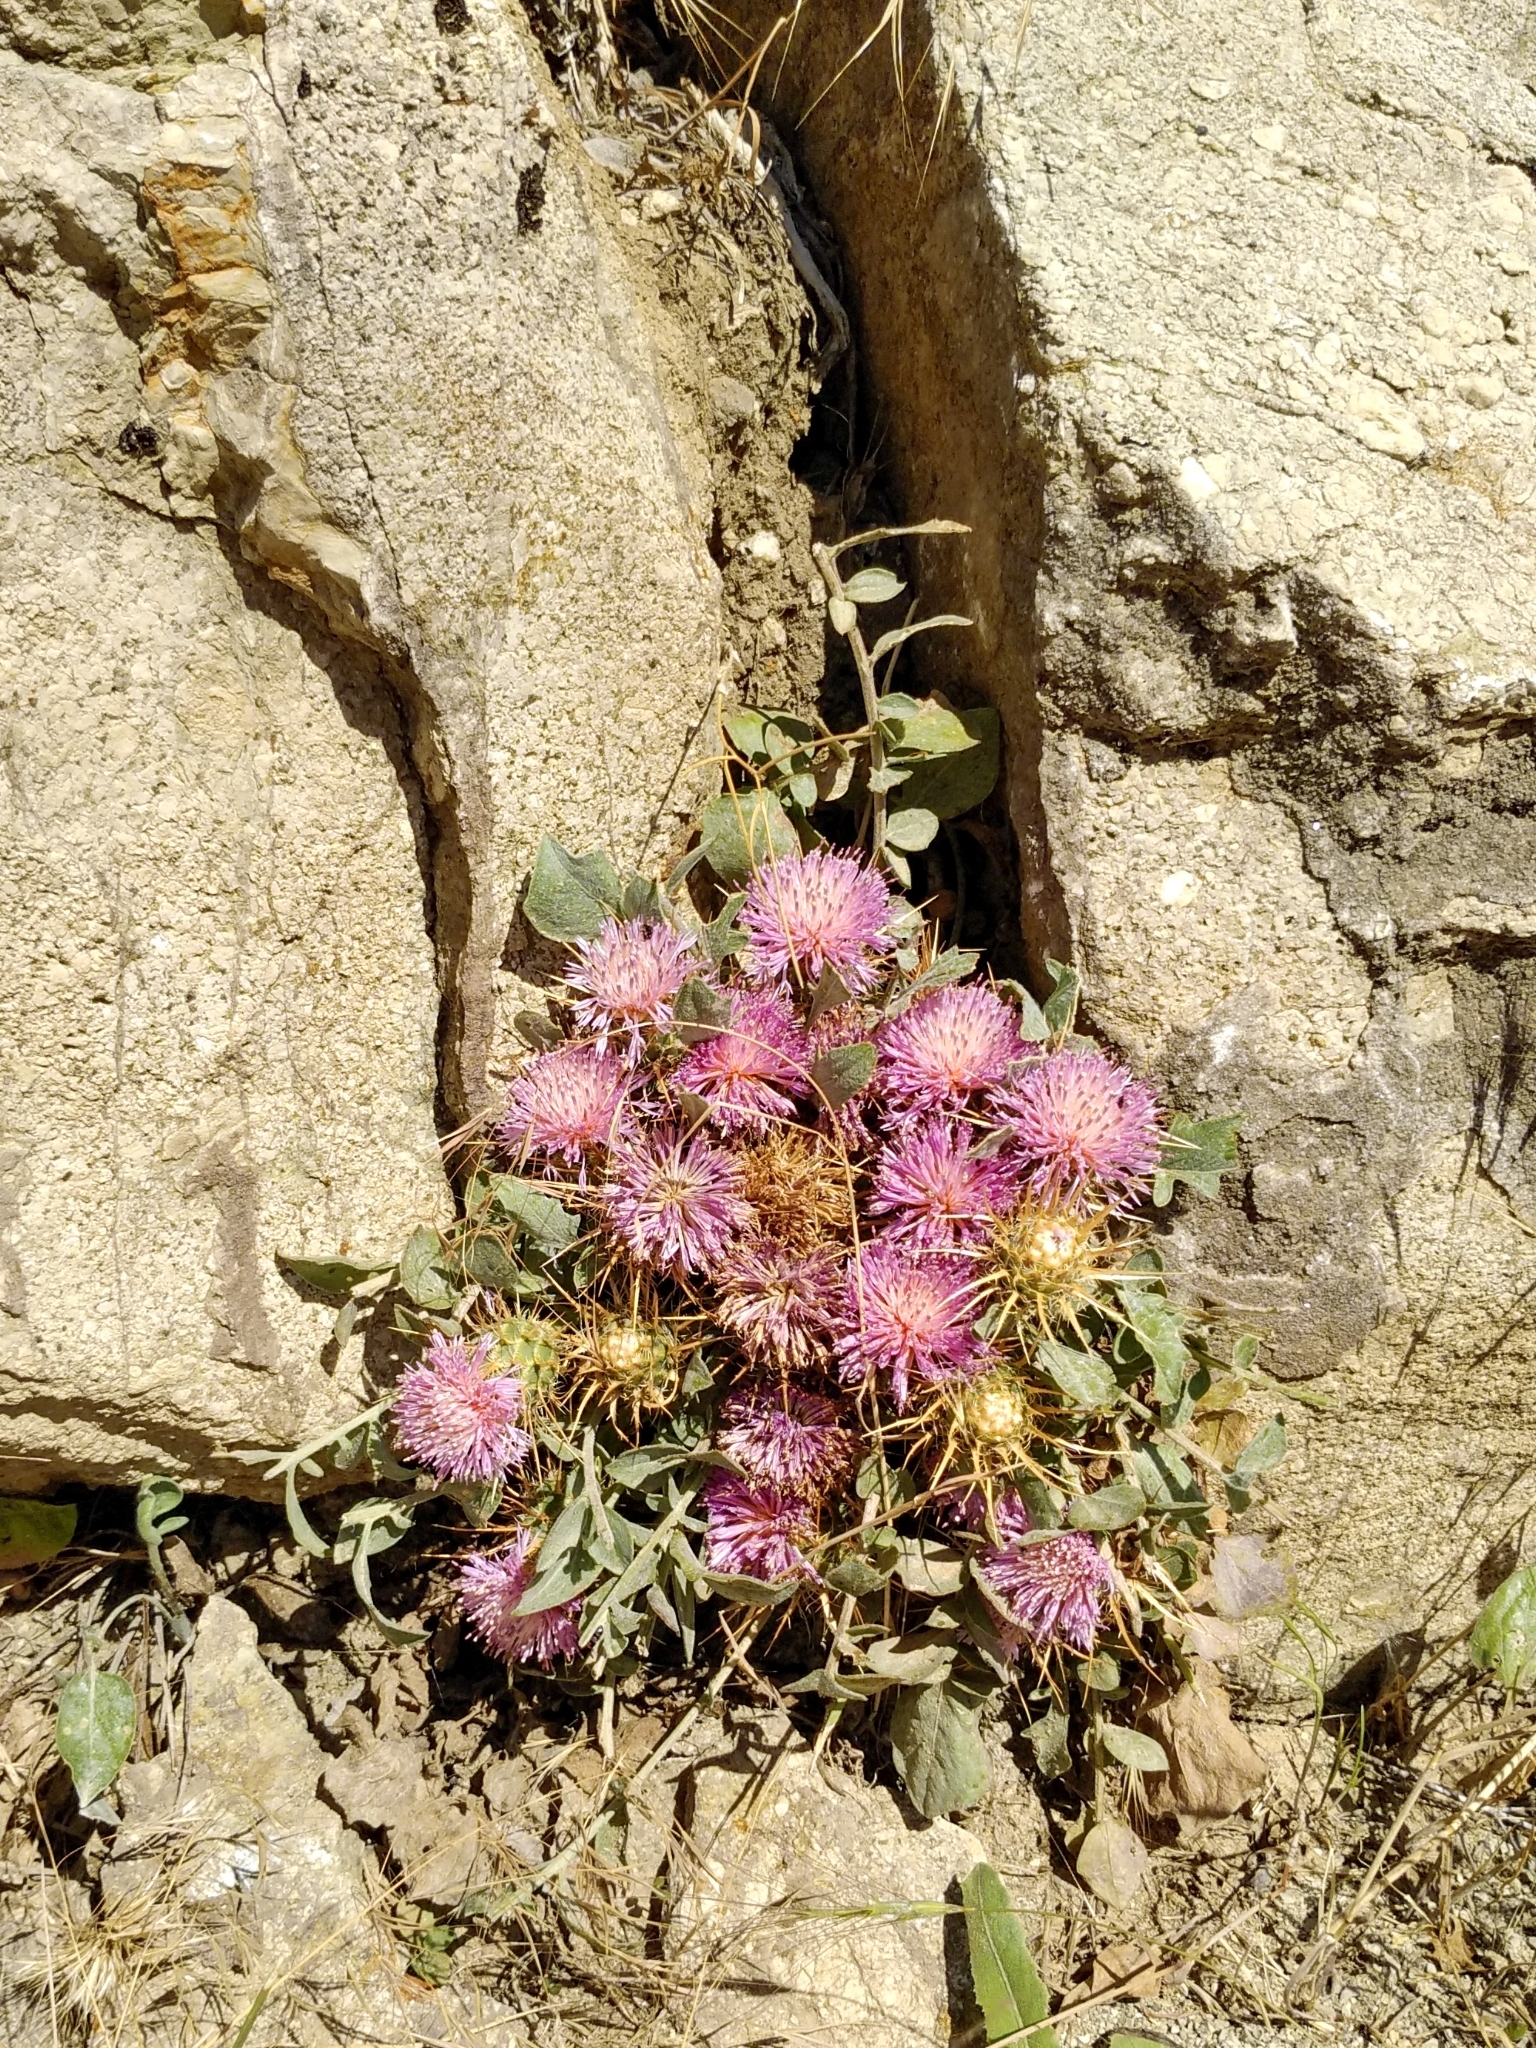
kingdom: Plantae
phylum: Tracheophyta
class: Magnoliopsida
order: Asterales
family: Asteraceae
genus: Centaurea
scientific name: Centaurea urvillei
